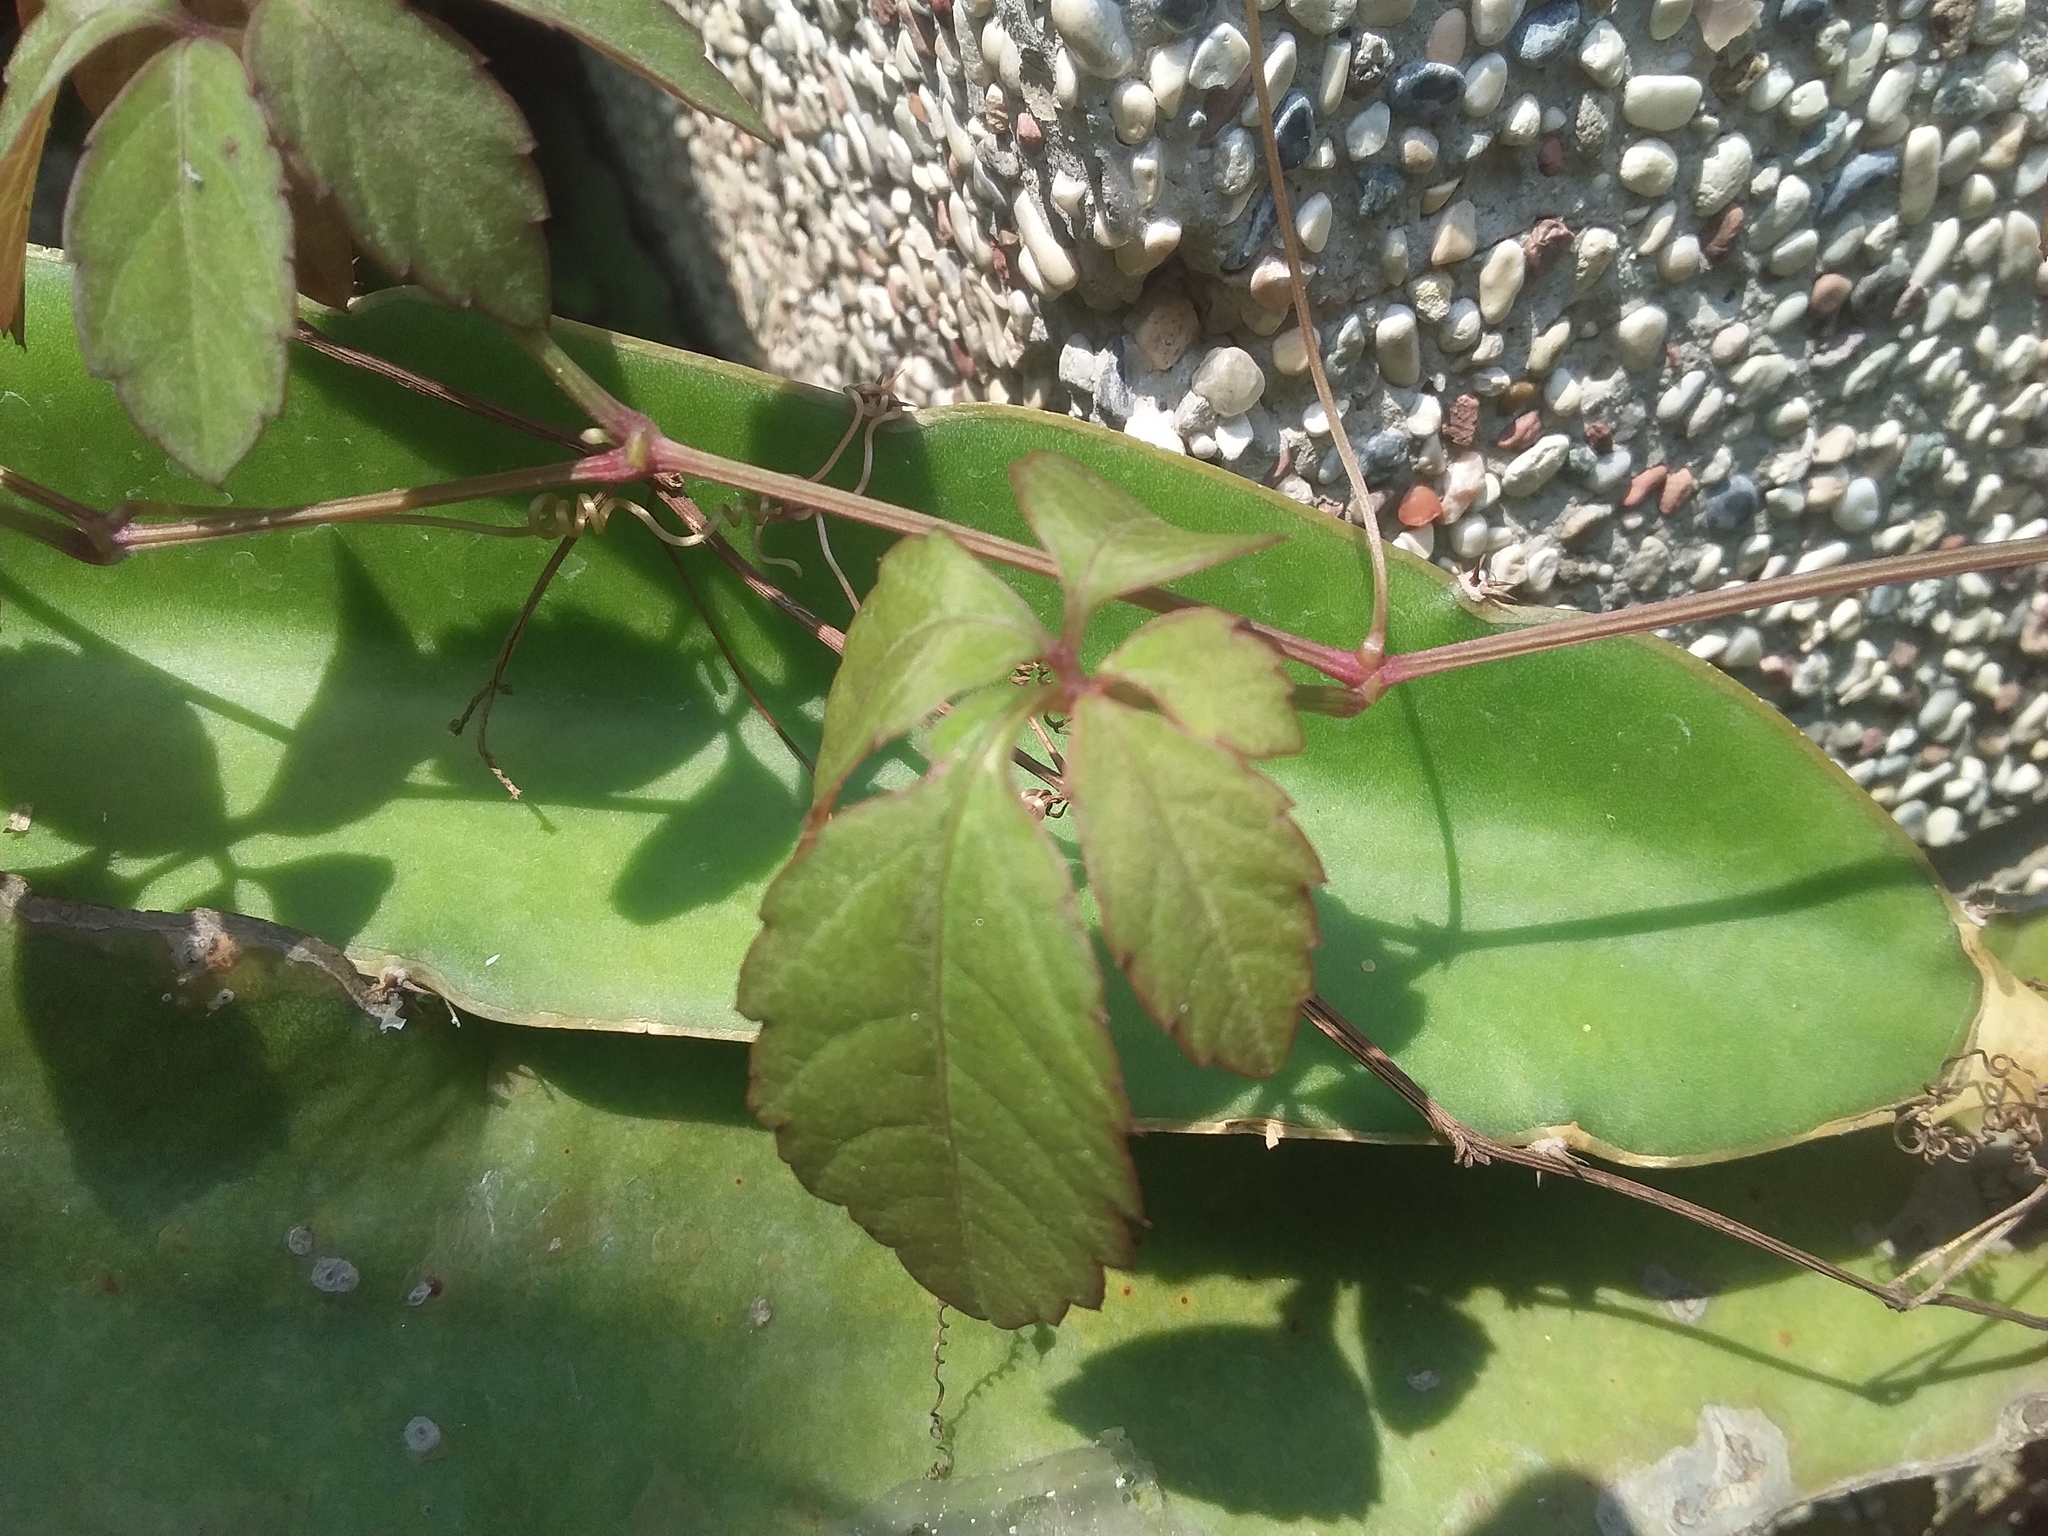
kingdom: Plantae
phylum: Tracheophyta
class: Magnoliopsida
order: Vitales
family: Vitaceae
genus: Causonis
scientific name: Causonis japonica
